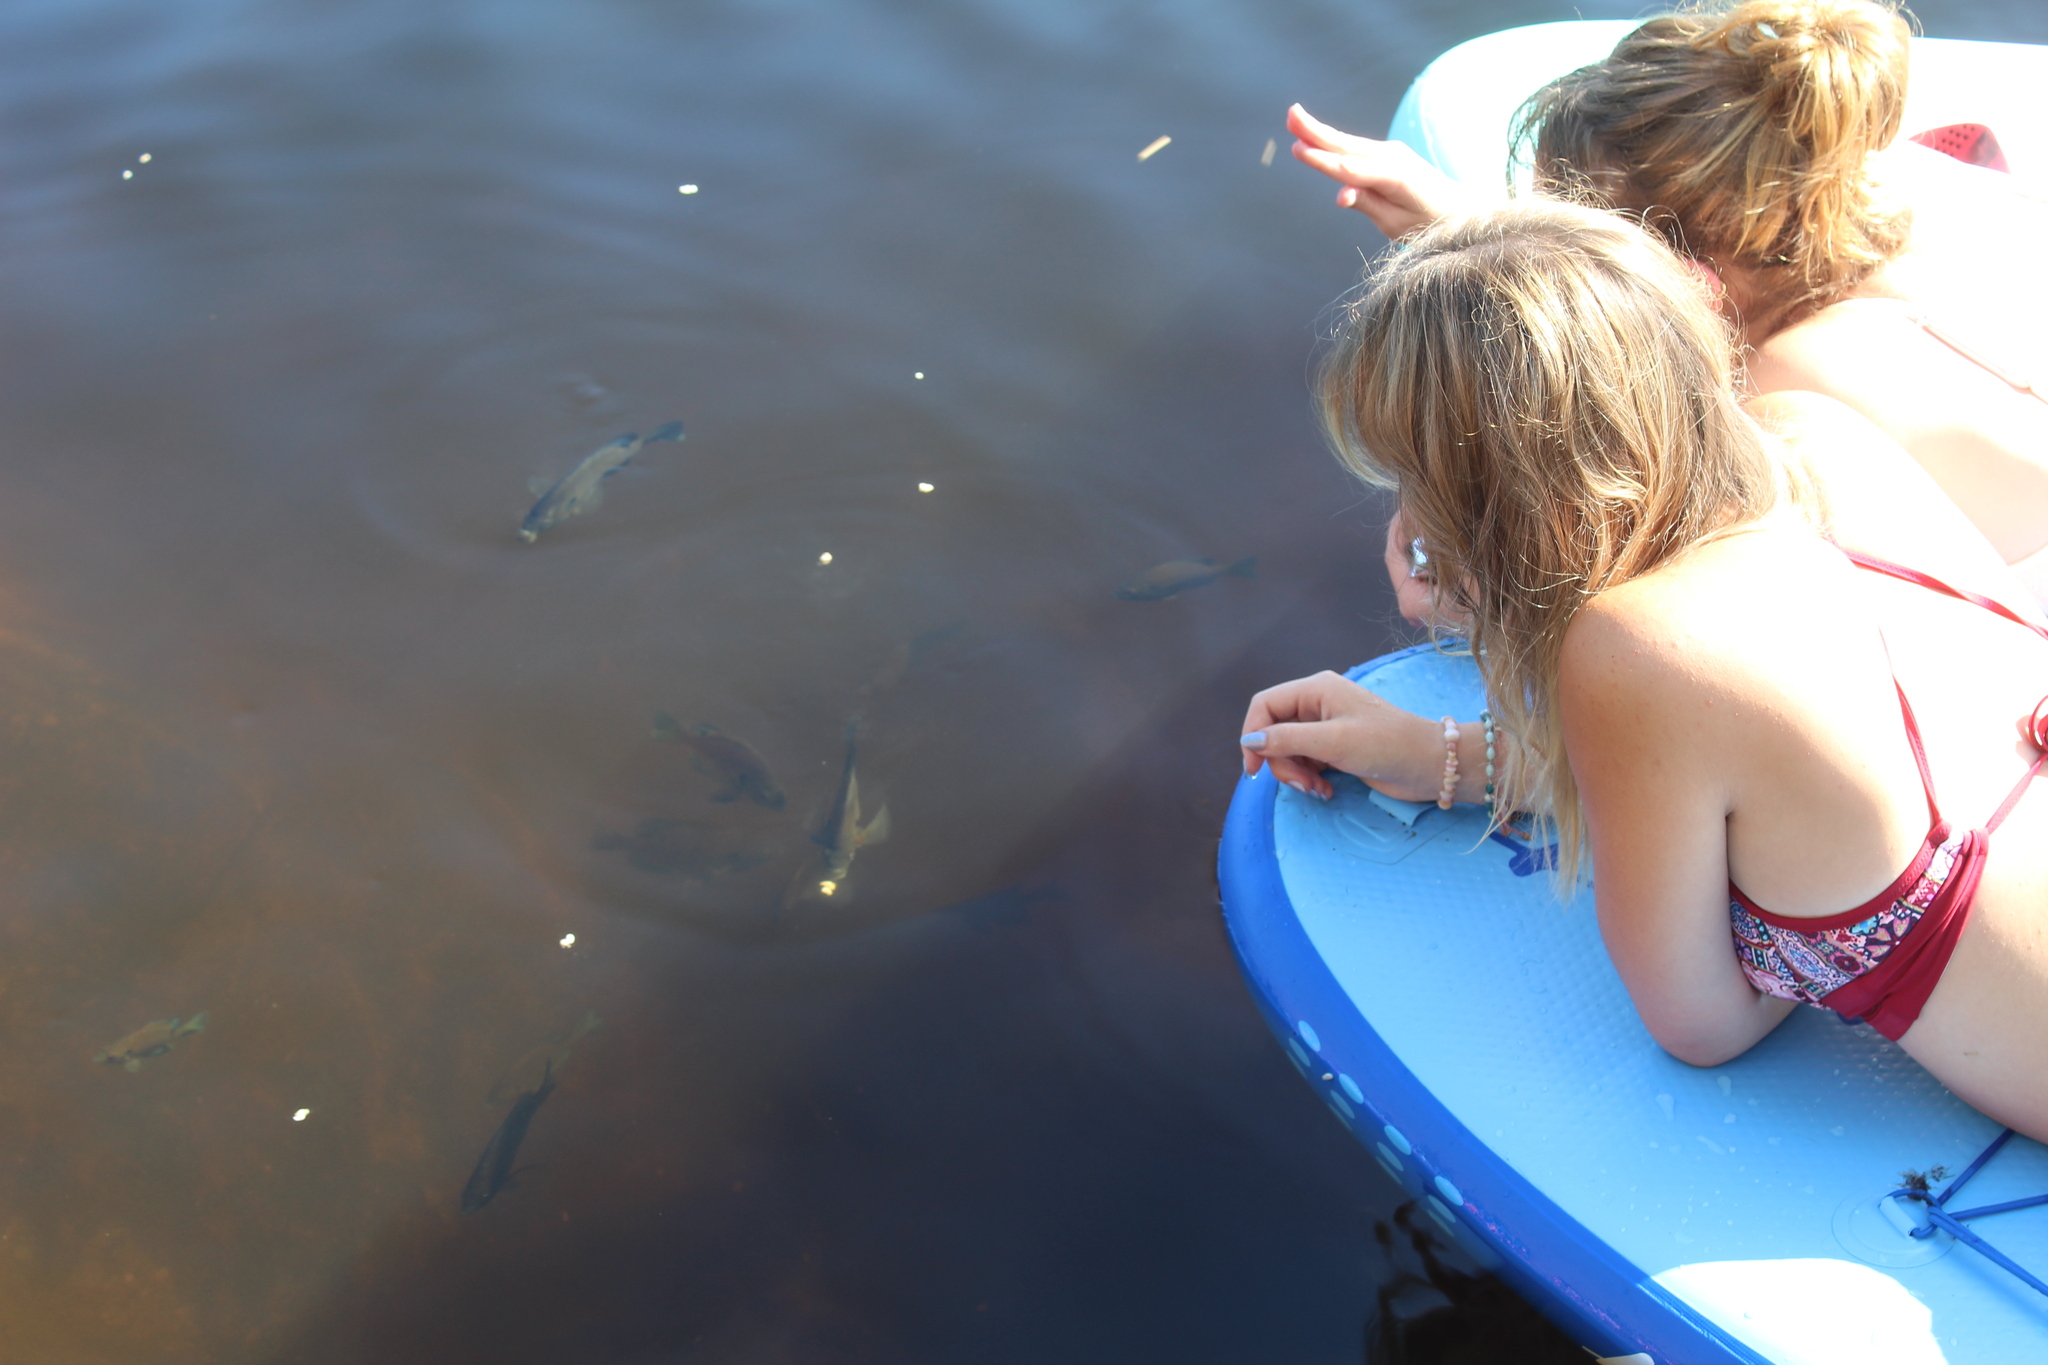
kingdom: Animalia
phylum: Chordata
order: Perciformes
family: Centrarchidae
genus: Lepomis
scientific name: Lepomis macrochirus
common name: Bluegill
